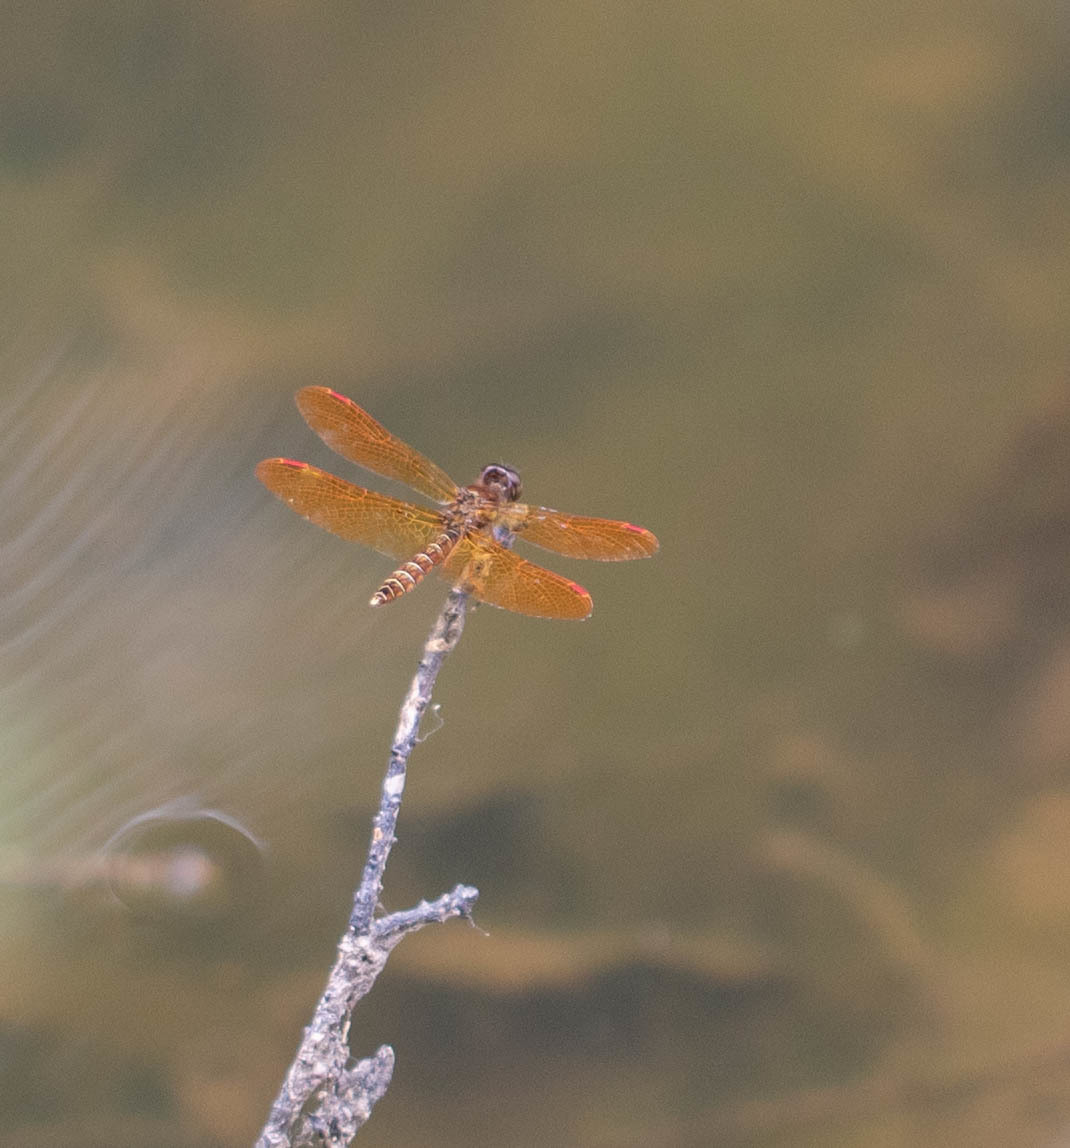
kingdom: Animalia
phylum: Arthropoda
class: Insecta
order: Odonata
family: Libellulidae
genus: Perithemis
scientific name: Perithemis tenera
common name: Eastern amberwing
